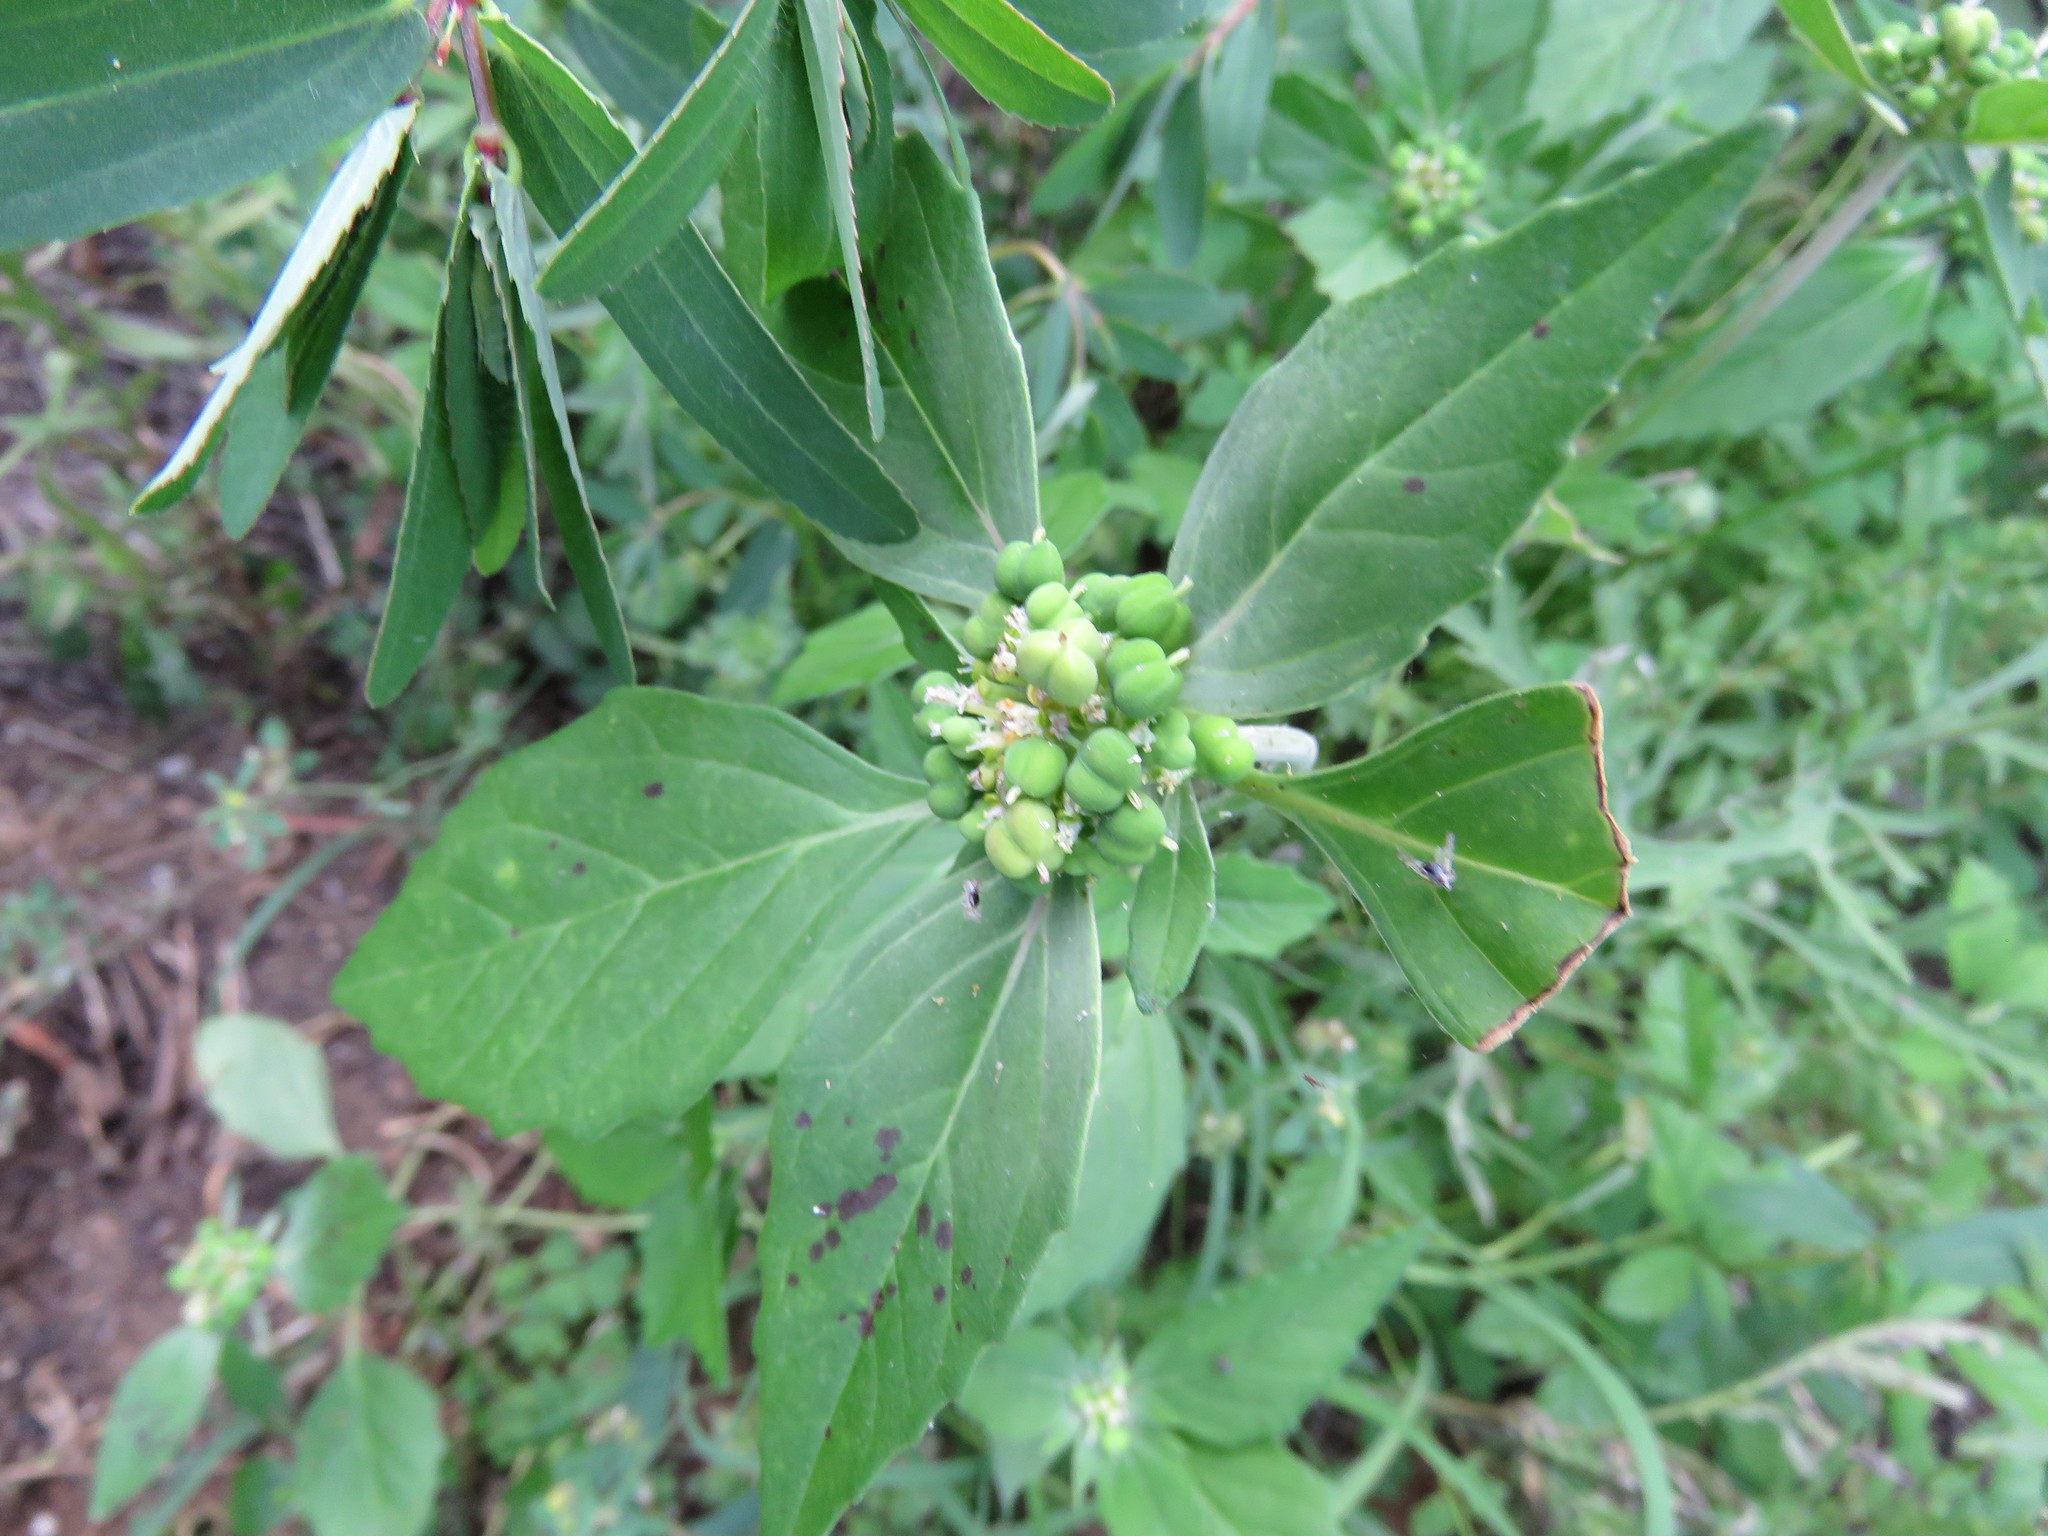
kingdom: Plantae
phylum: Tracheophyta
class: Magnoliopsida
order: Malpighiales
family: Euphorbiaceae
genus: Euphorbia
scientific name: Euphorbia dentata
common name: Dentate spurge
